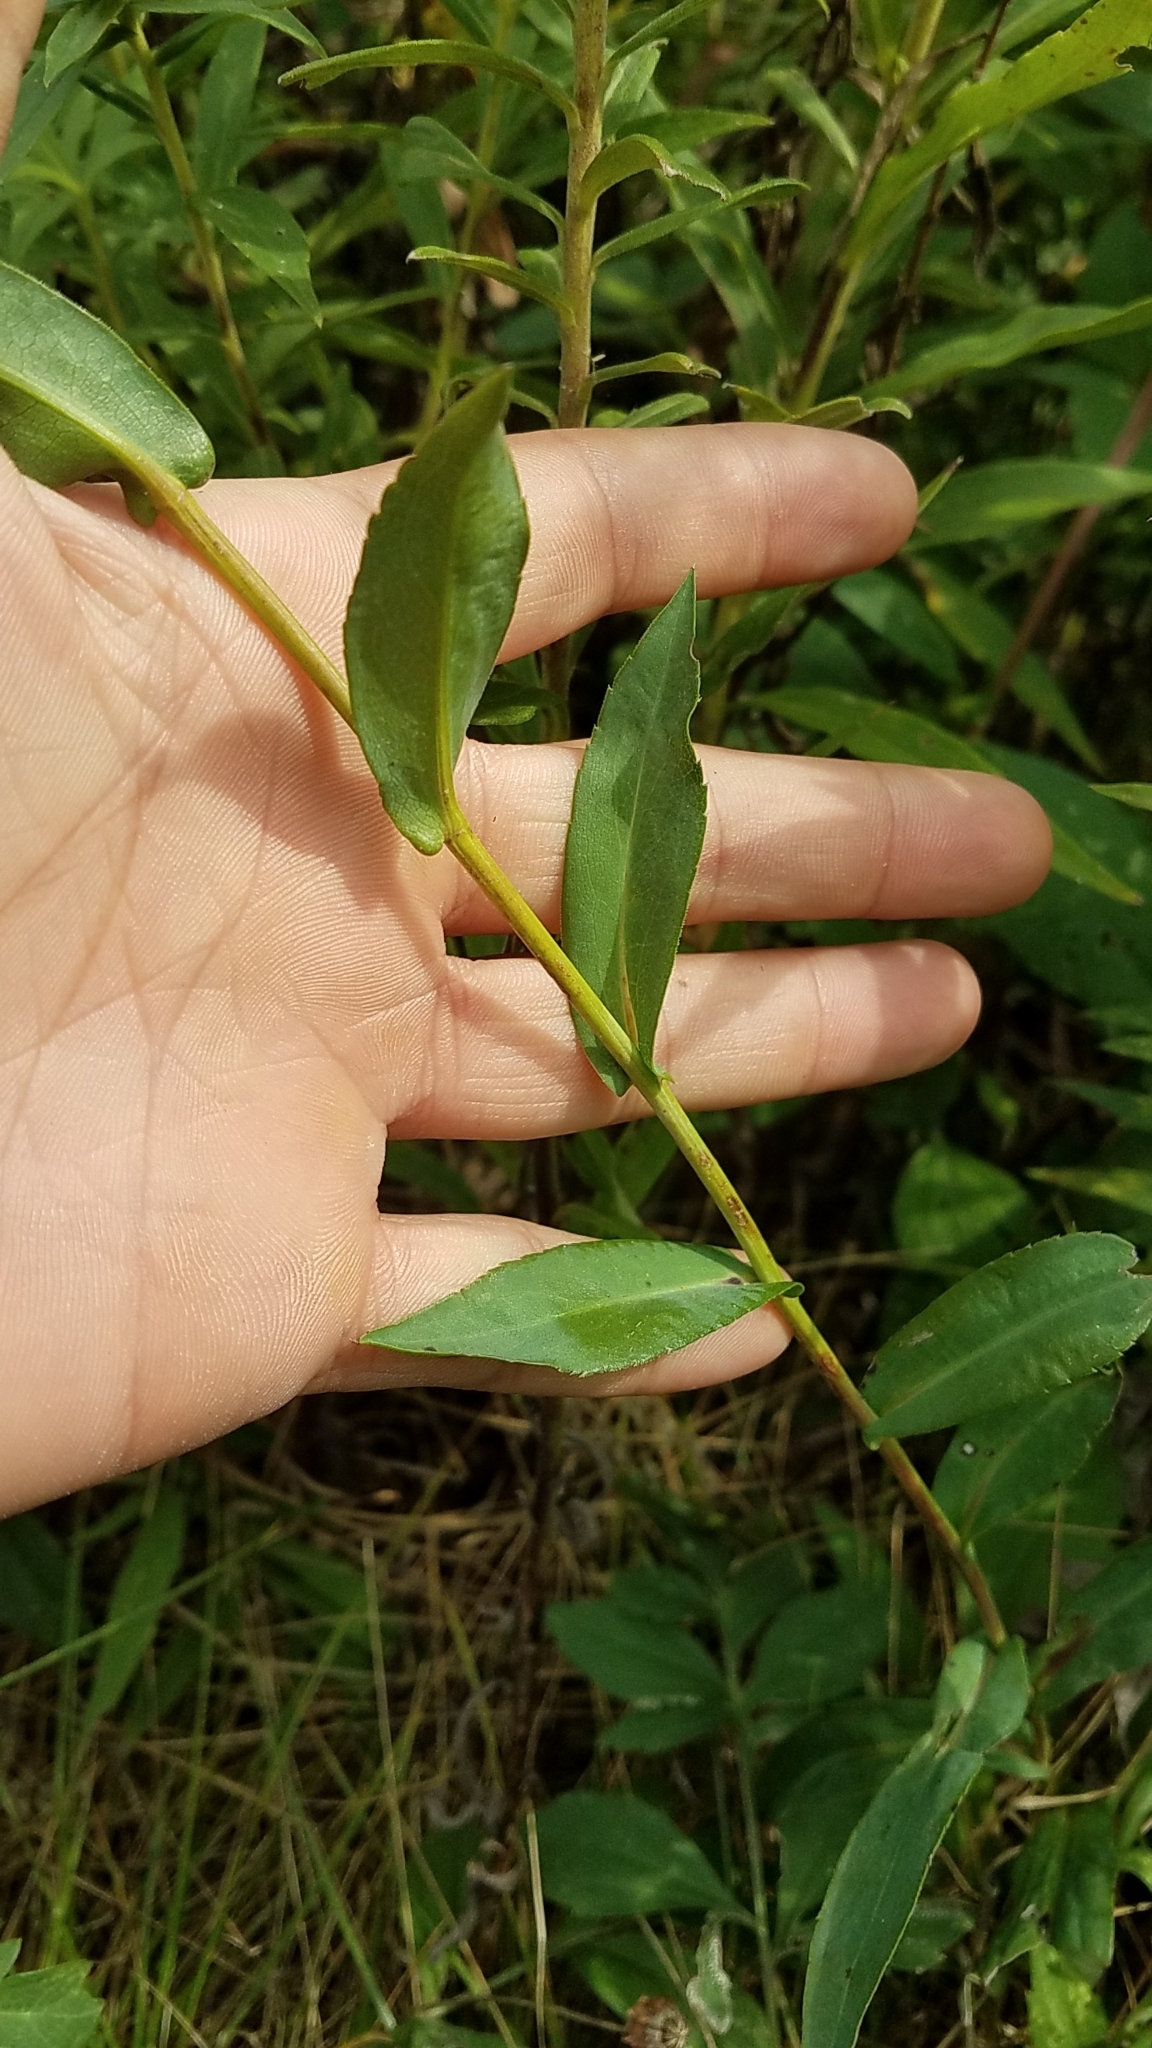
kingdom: Plantae
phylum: Tracheophyta
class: Magnoliopsida
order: Asterales
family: Asteraceae
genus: Symphyotrichum
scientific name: Symphyotrichum laeve
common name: Glaucous aster
